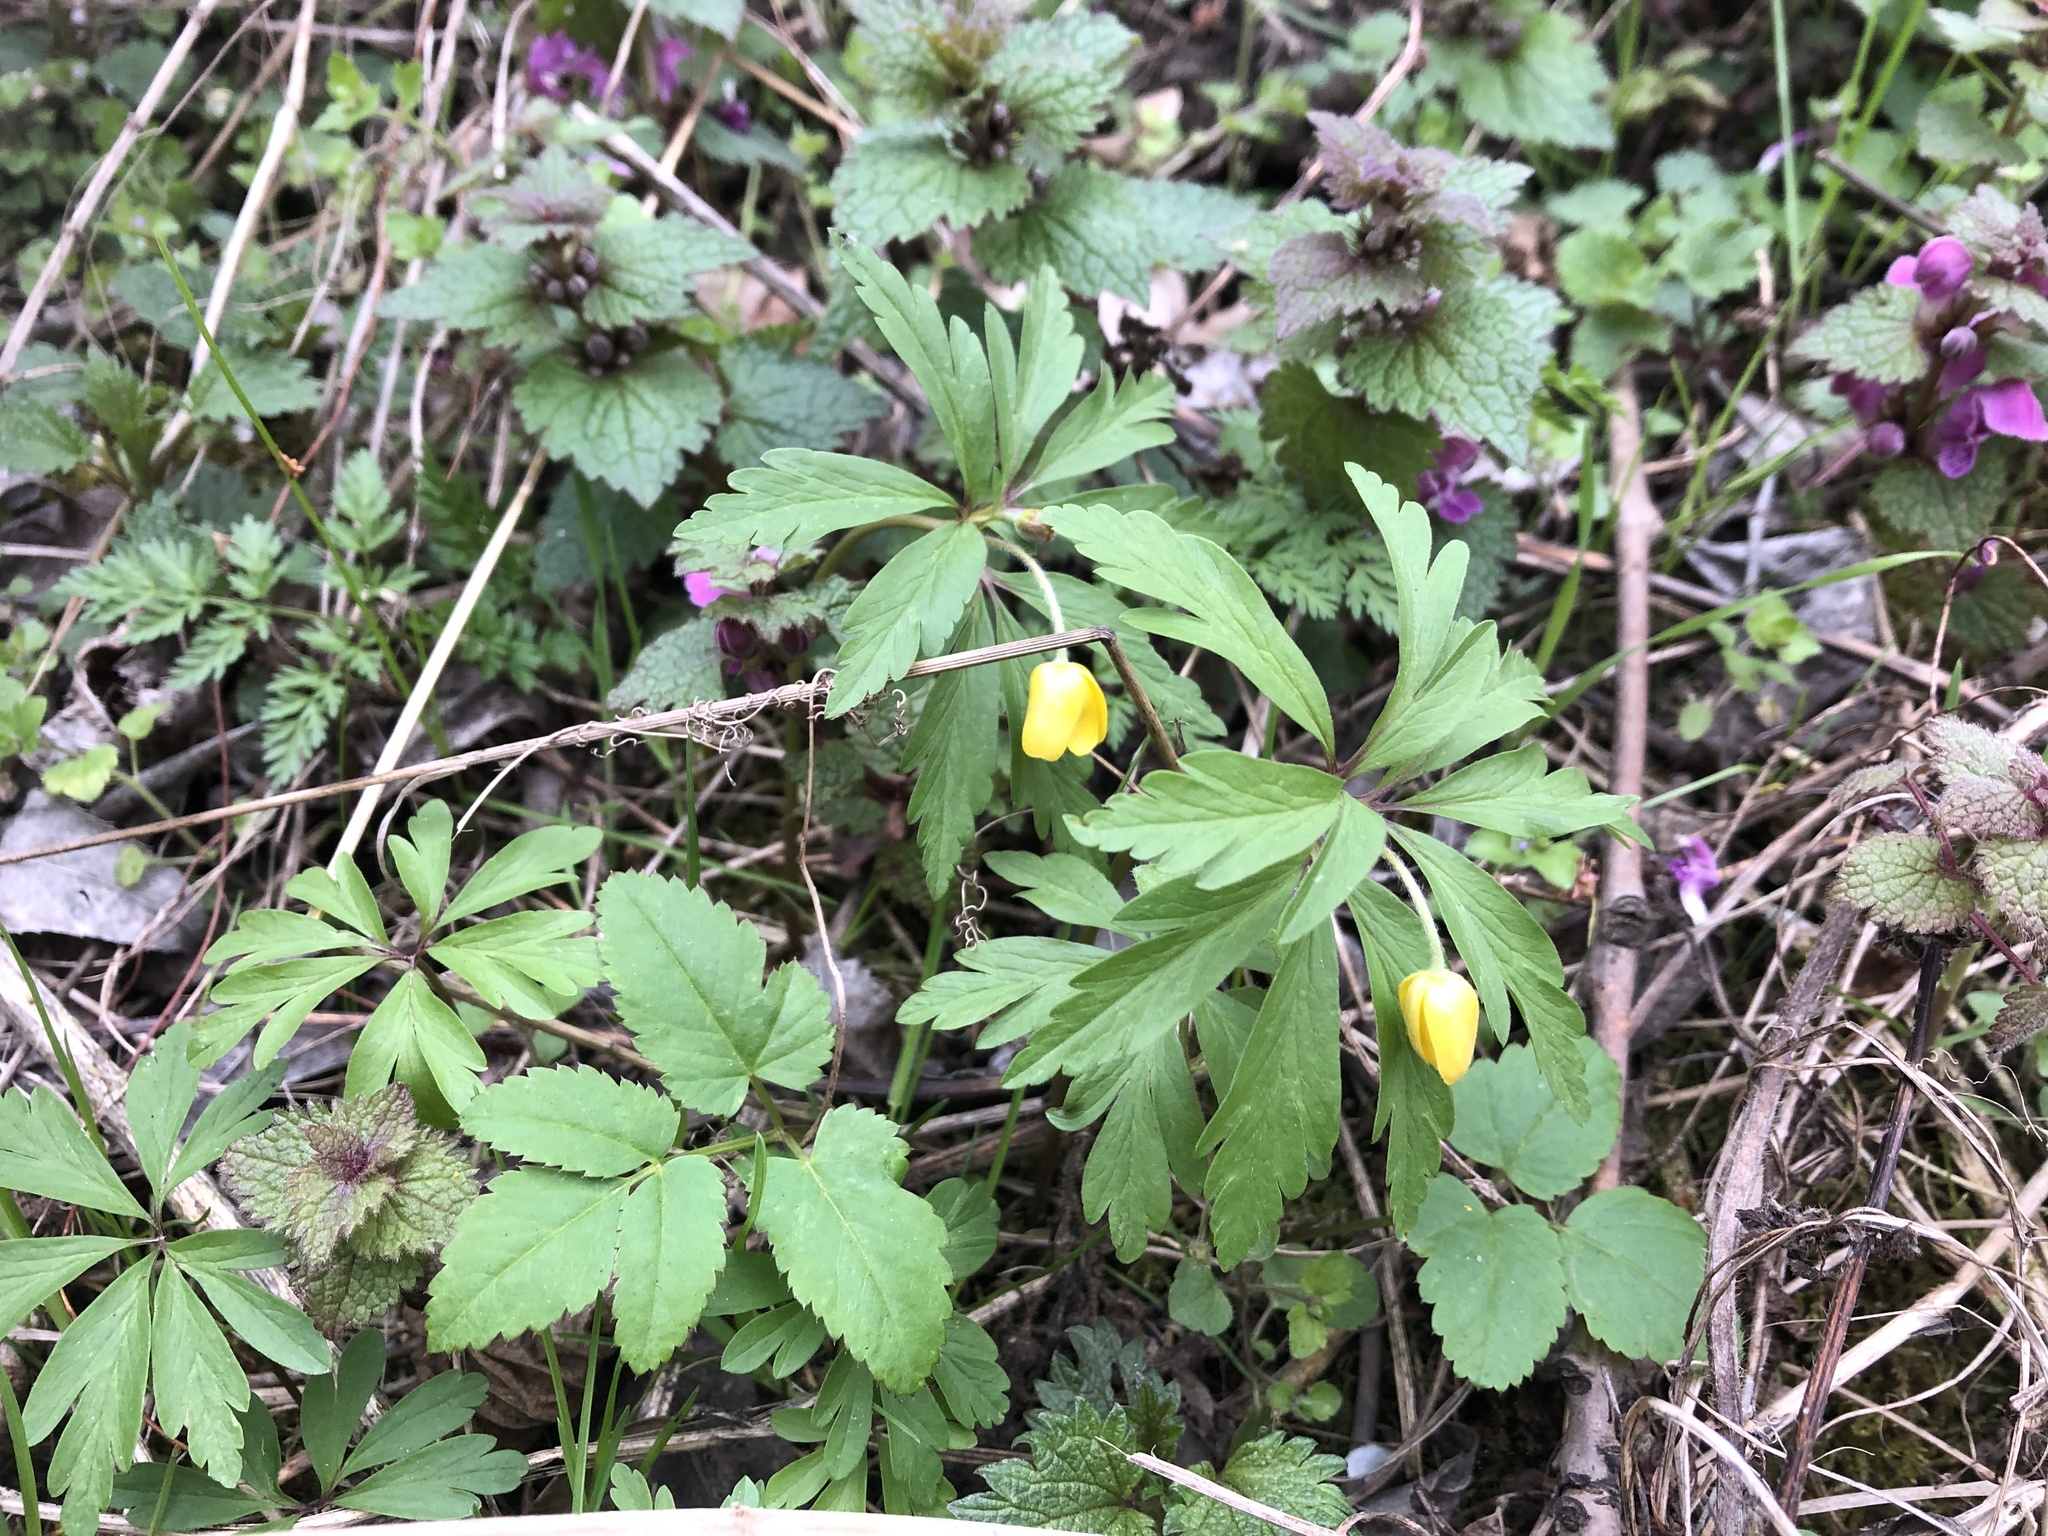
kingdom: Plantae
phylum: Tracheophyta
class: Magnoliopsida
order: Ranunculales
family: Ranunculaceae
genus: Anemone
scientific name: Anemone ranunculoides
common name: Yellow anemone
